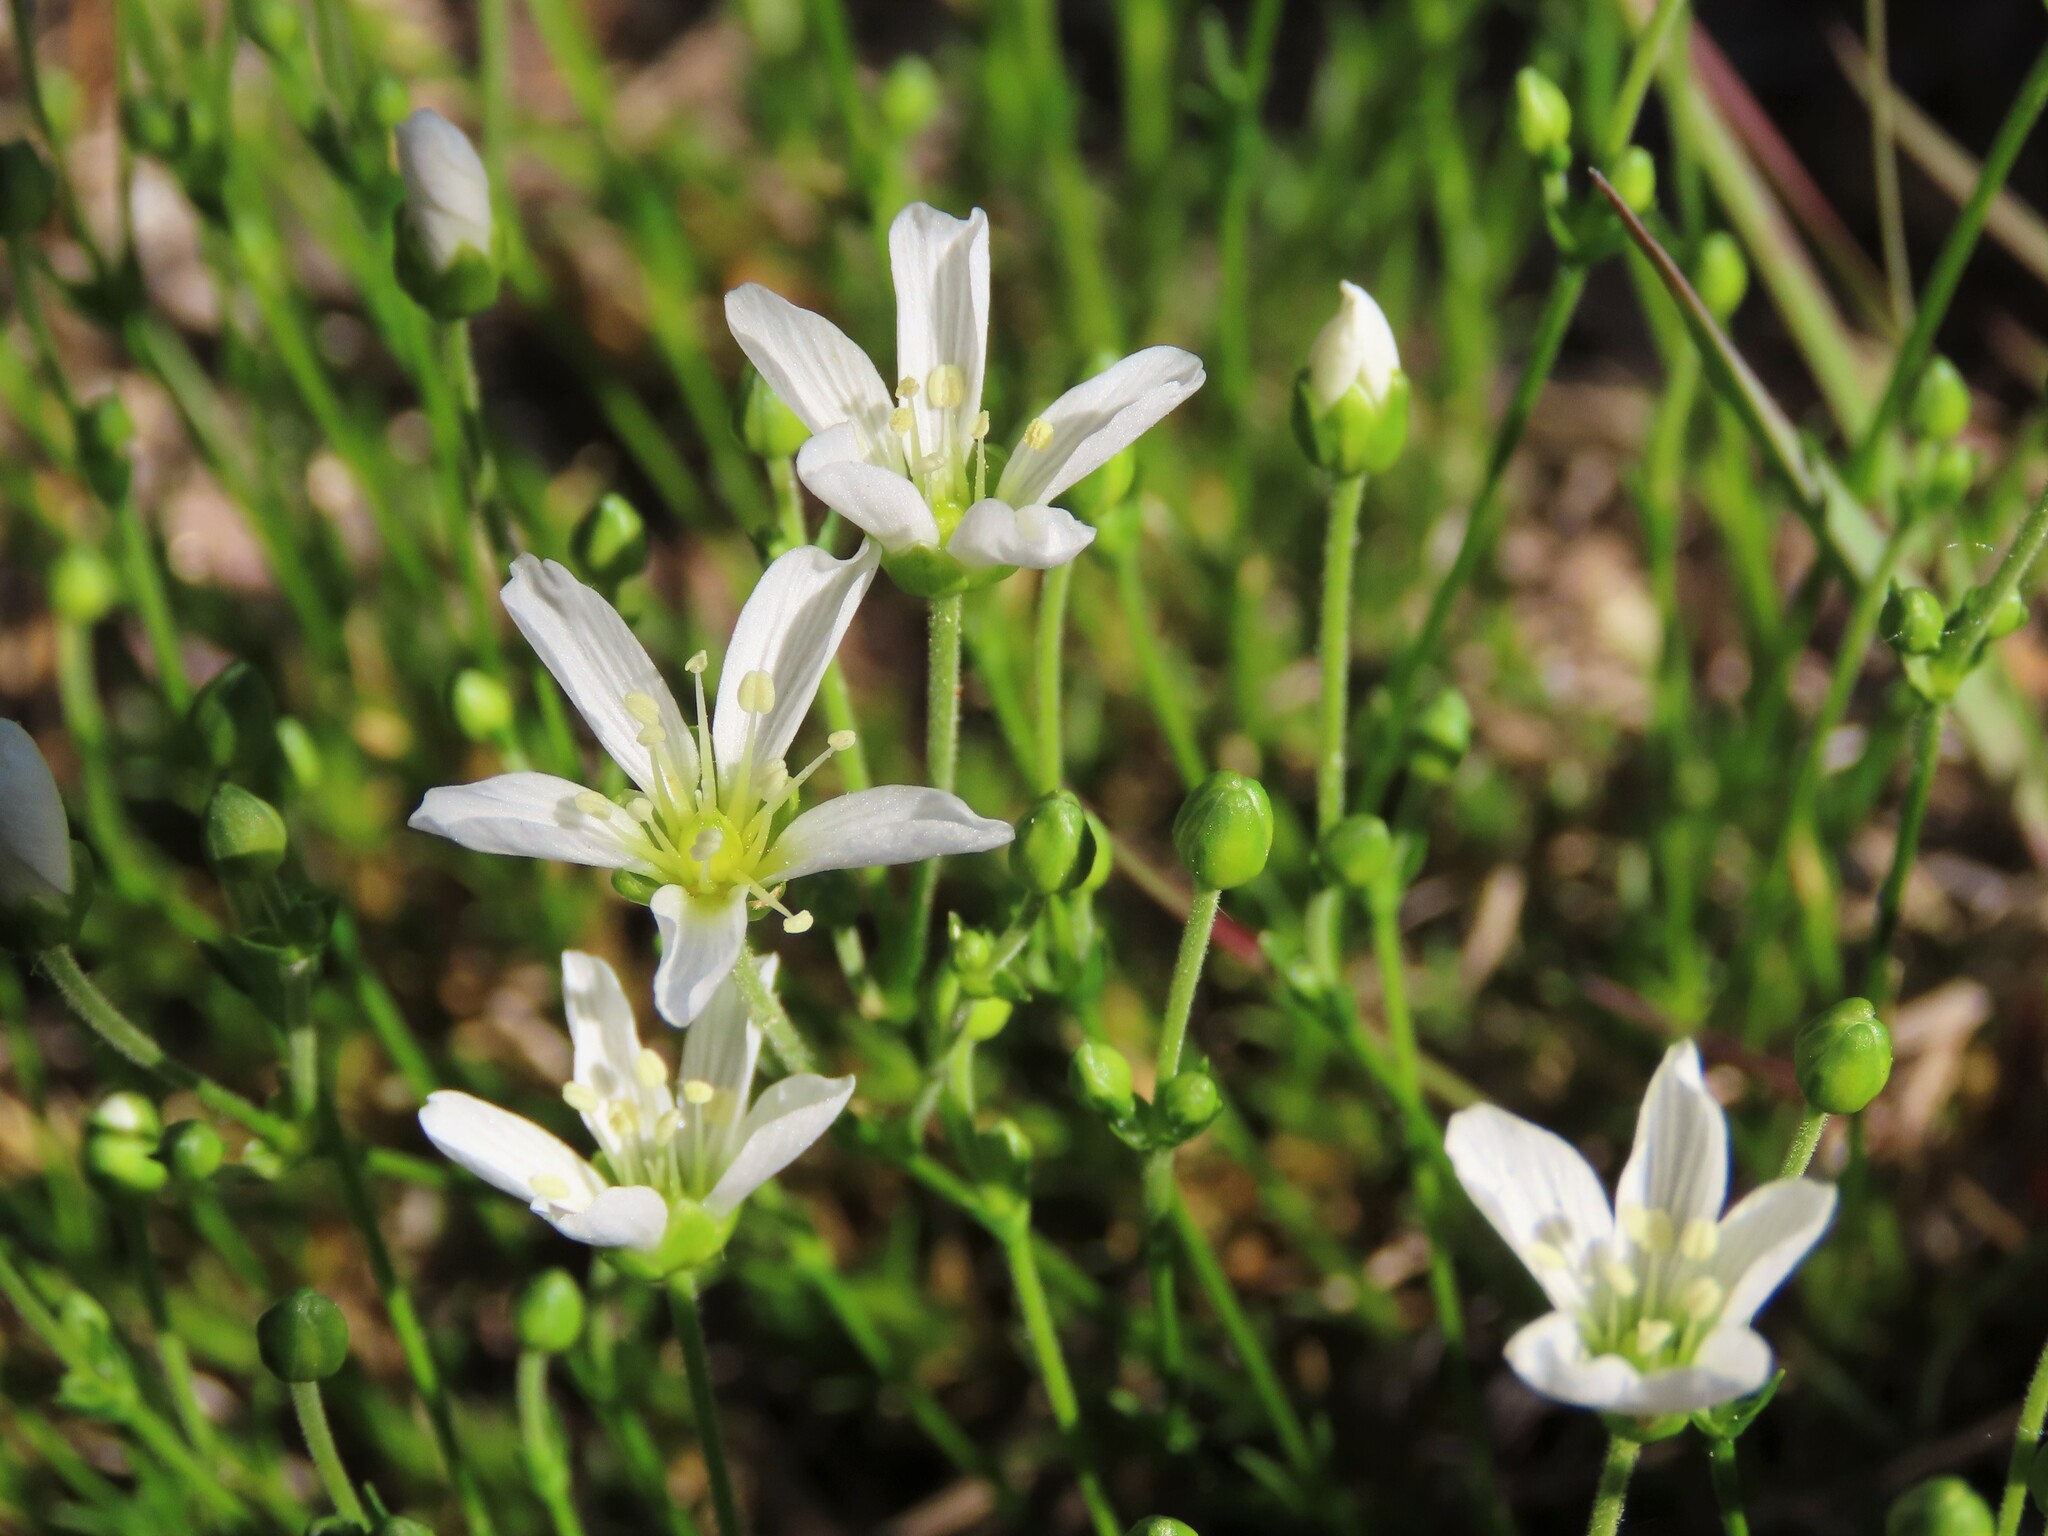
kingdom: Plantae
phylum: Tracheophyta
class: Magnoliopsida
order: Caryophyllales
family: Caryophyllaceae
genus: Geocarpon
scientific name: Geocarpon carolinianum
